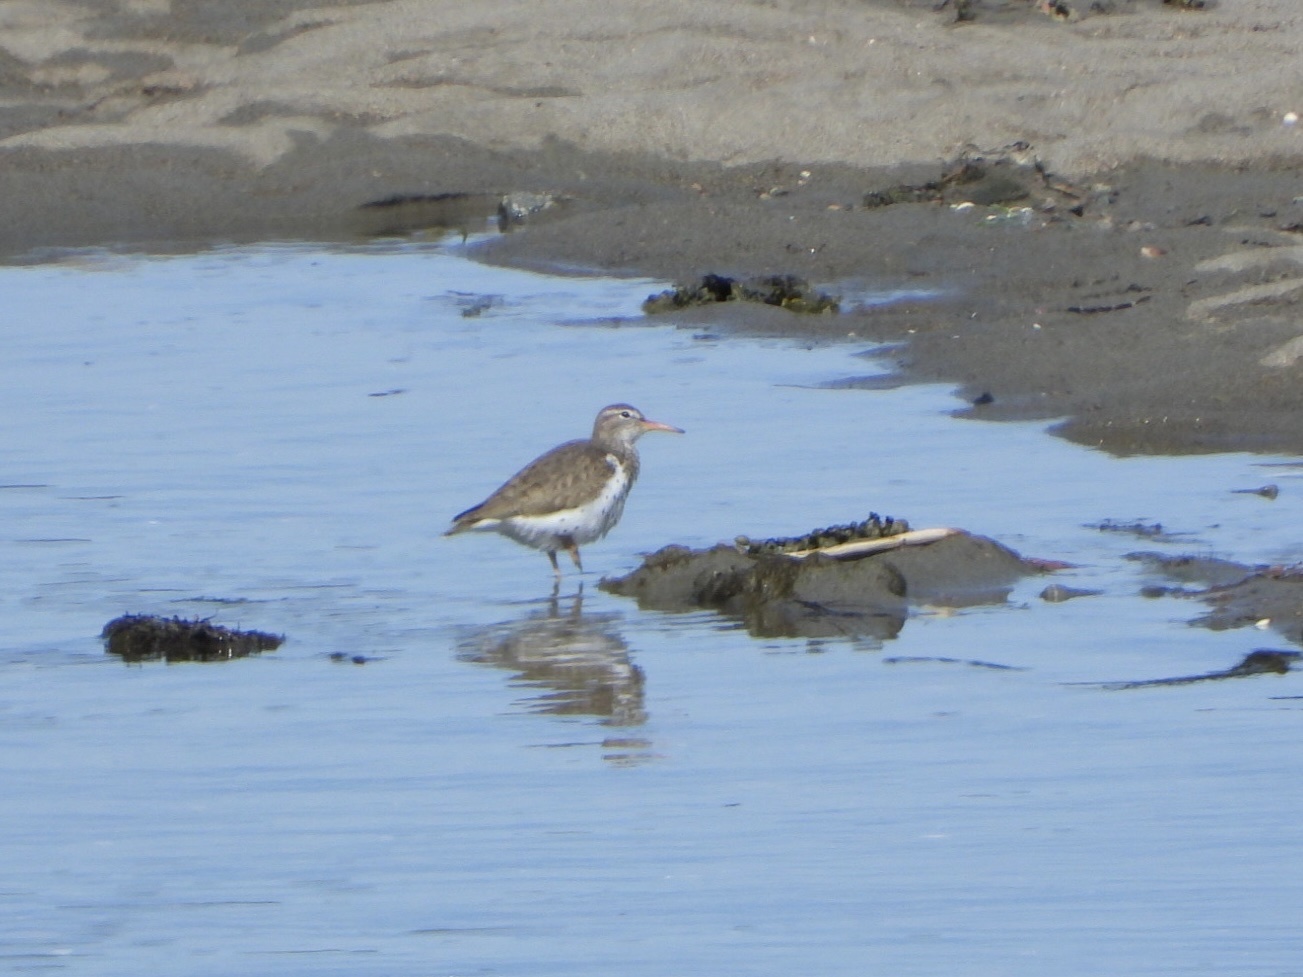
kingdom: Animalia
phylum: Chordata
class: Aves
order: Charadriiformes
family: Scolopacidae
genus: Actitis
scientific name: Actitis macularius
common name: Spotted sandpiper
